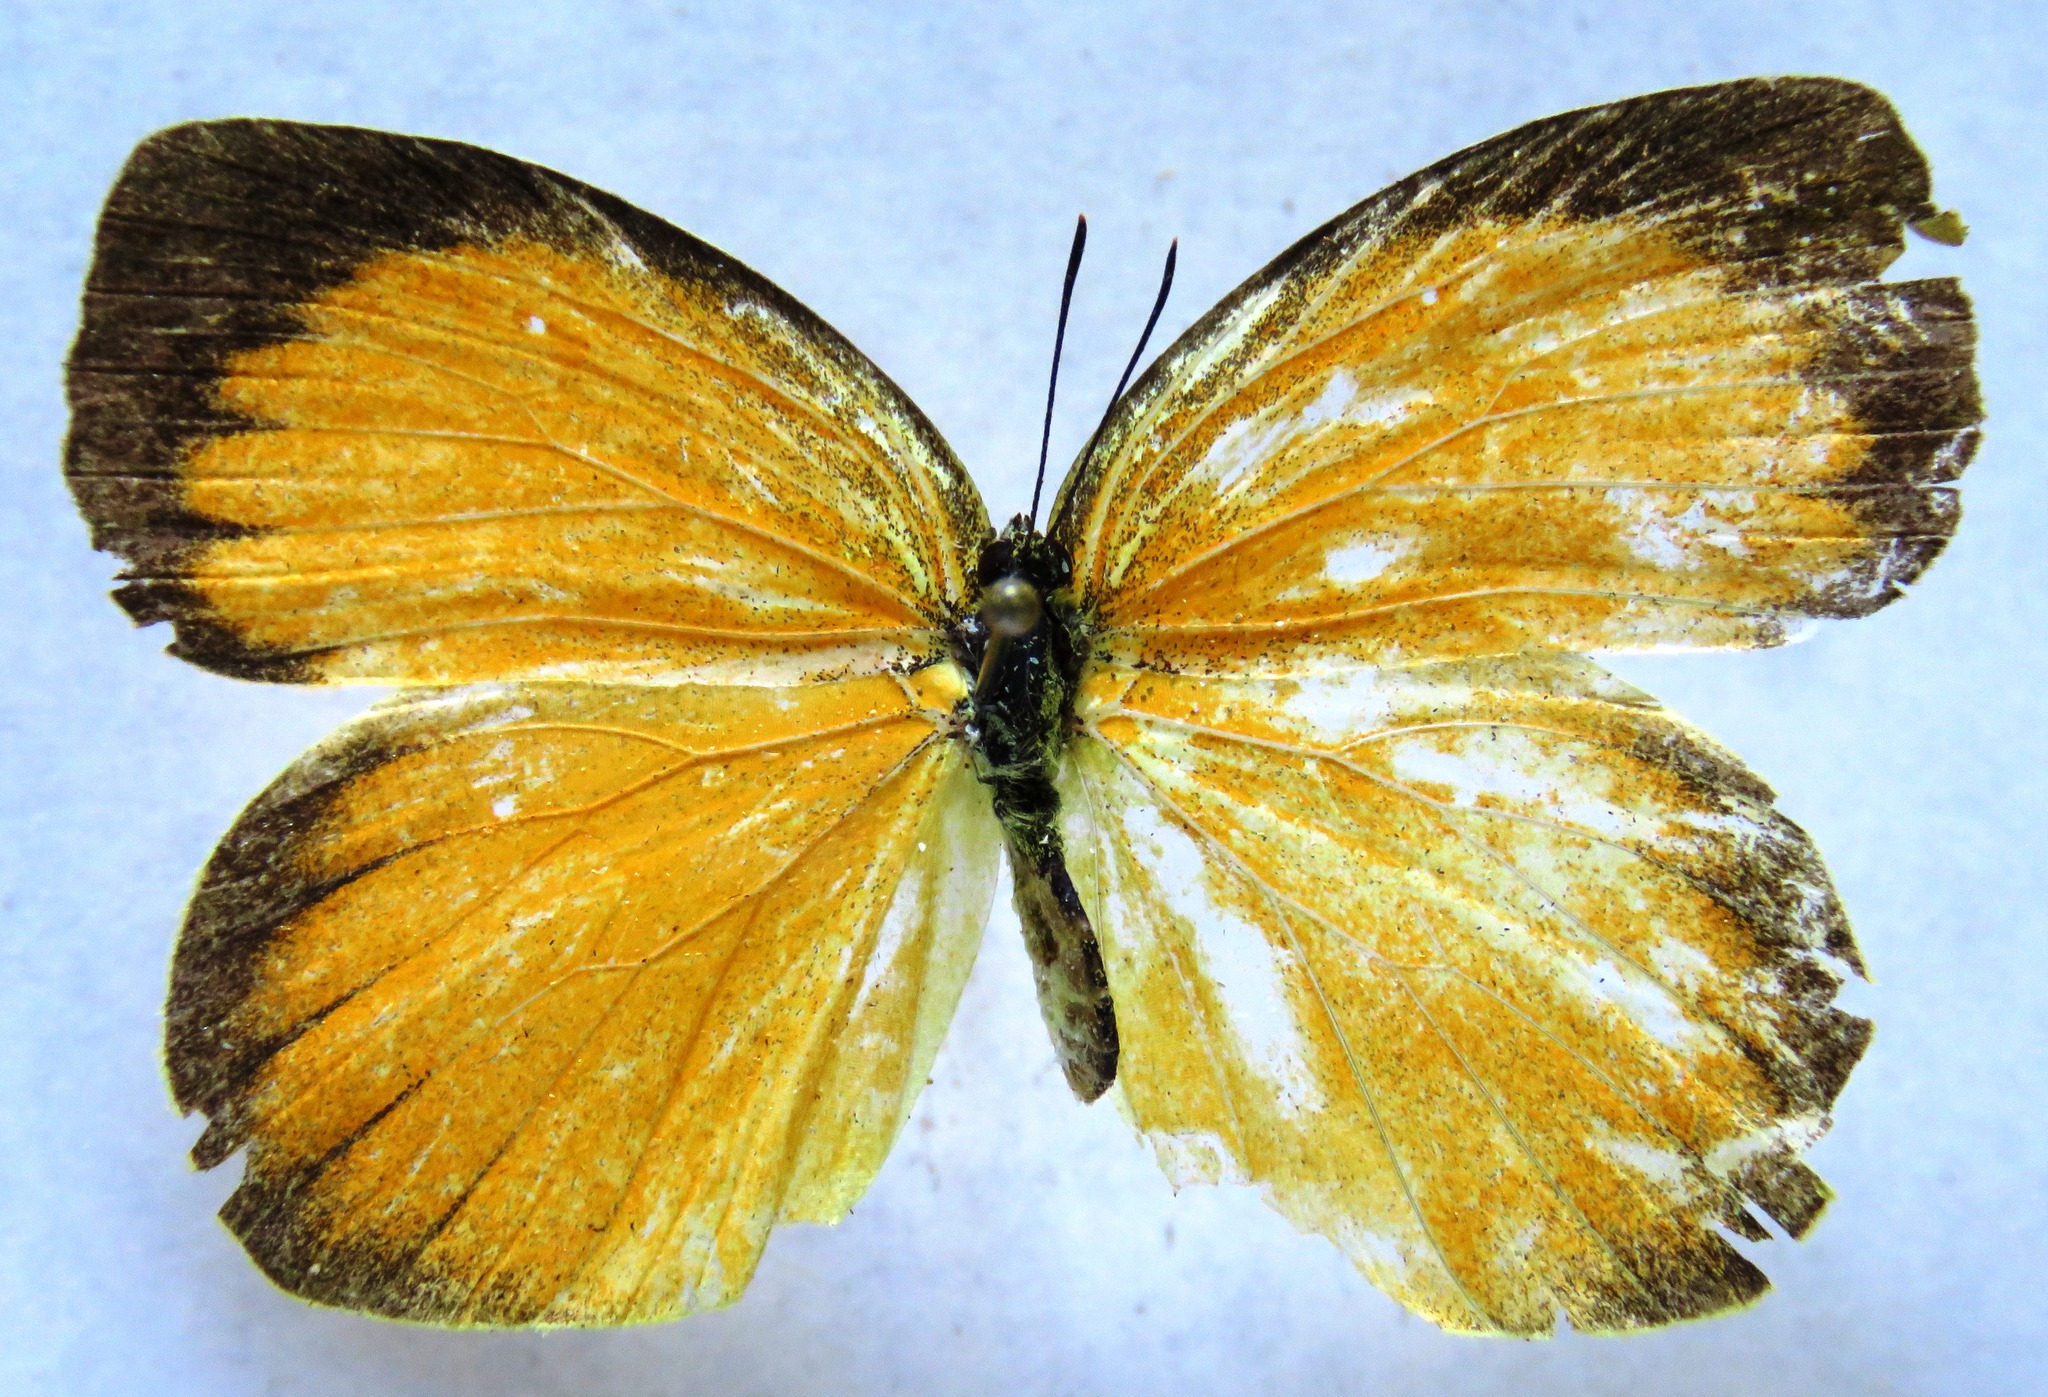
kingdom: Animalia
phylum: Arthropoda
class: Insecta
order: Lepidoptera
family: Pieridae
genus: Pyrisitia
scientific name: Pyrisitia proterpia
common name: Tailed orange
